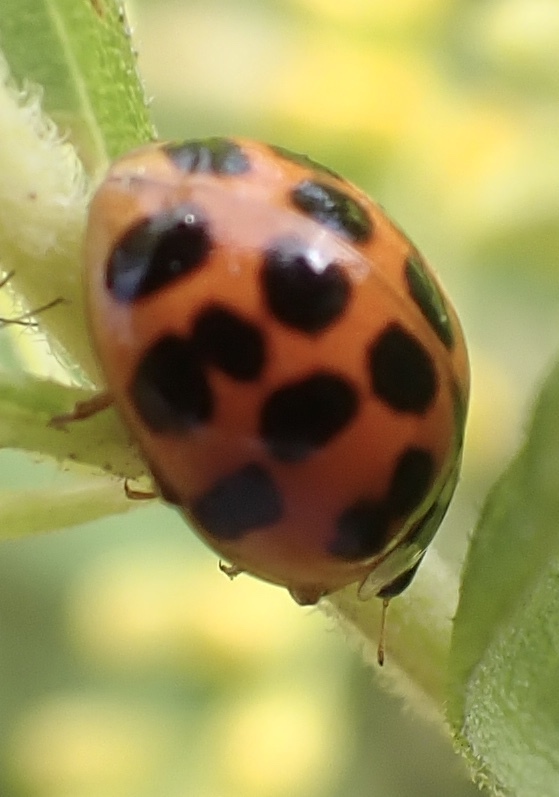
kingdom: Animalia
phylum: Arthropoda
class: Insecta
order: Coleoptera
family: Coccinellidae
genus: Harmonia
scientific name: Harmonia axyridis
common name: Harlequin ladybird
